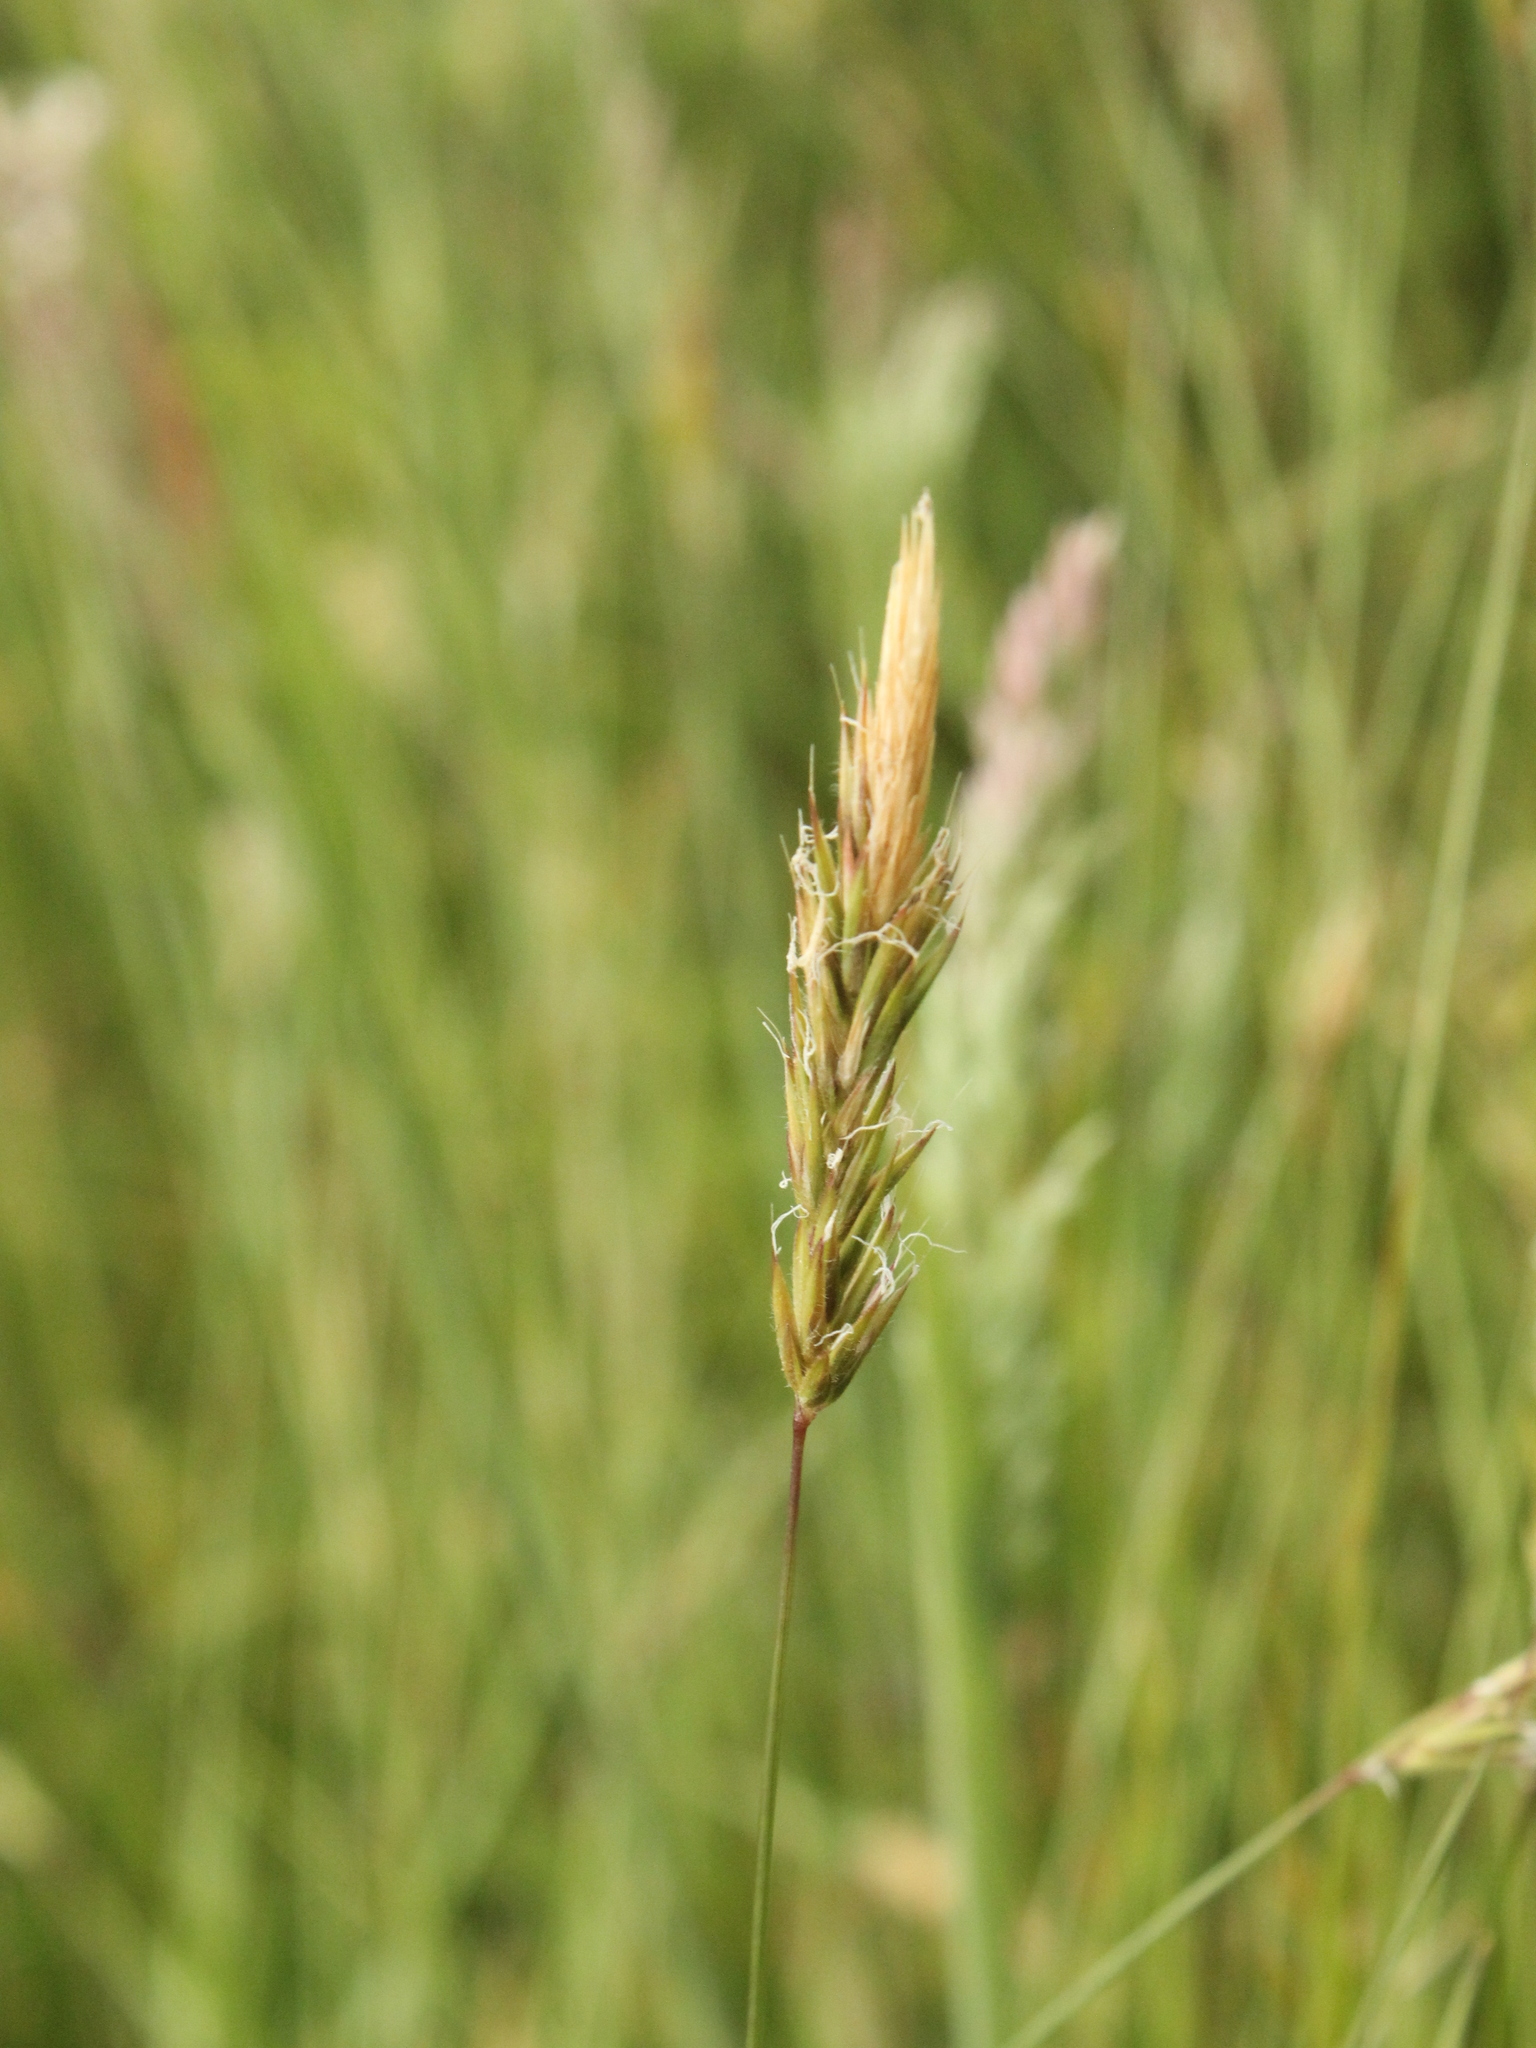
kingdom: Plantae
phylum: Tracheophyta
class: Liliopsida
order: Poales
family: Poaceae
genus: Anthoxanthum
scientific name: Anthoxanthum odoratum
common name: Sweet vernalgrass
